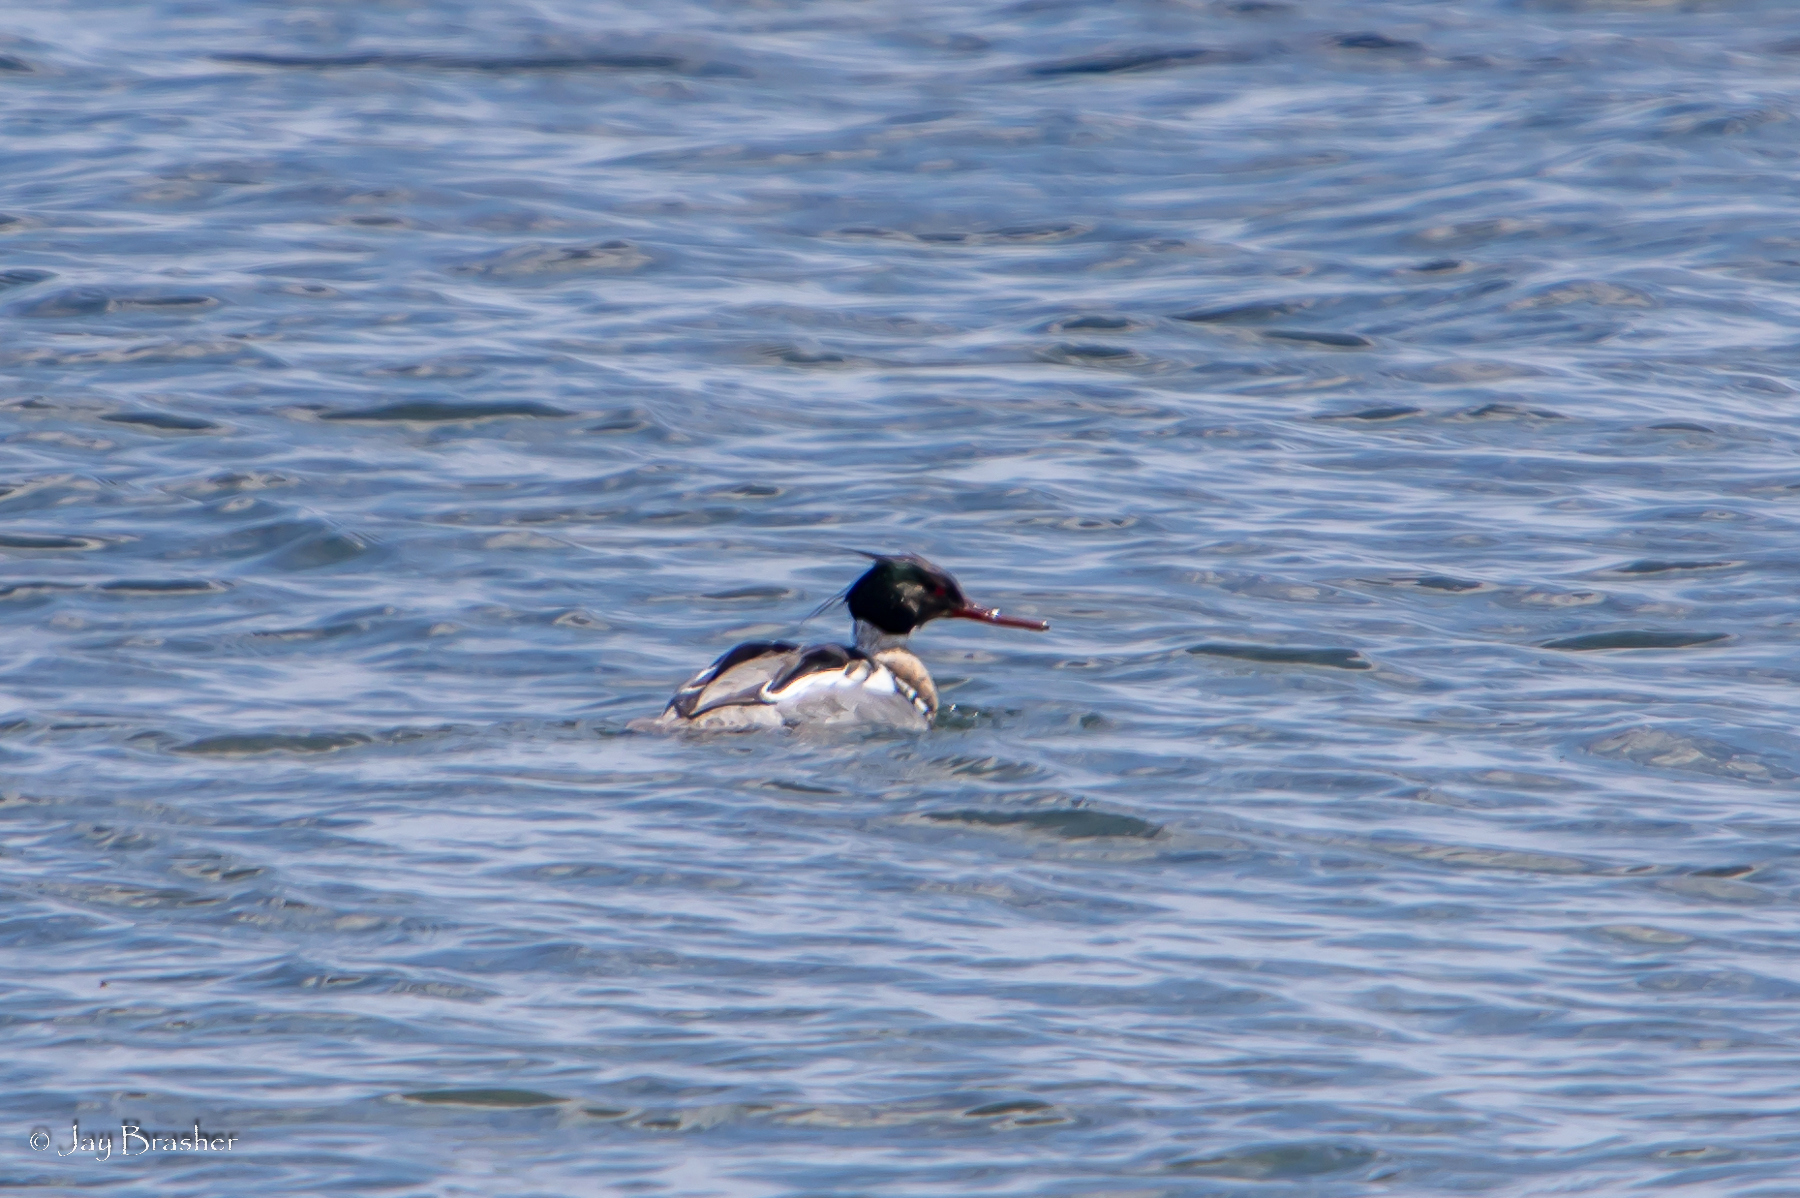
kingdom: Animalia
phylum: Chordata
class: Aves
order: Anseriformes
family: Anatidae
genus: Mergus
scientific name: Mergus serrator
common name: Red-breasted merganser
